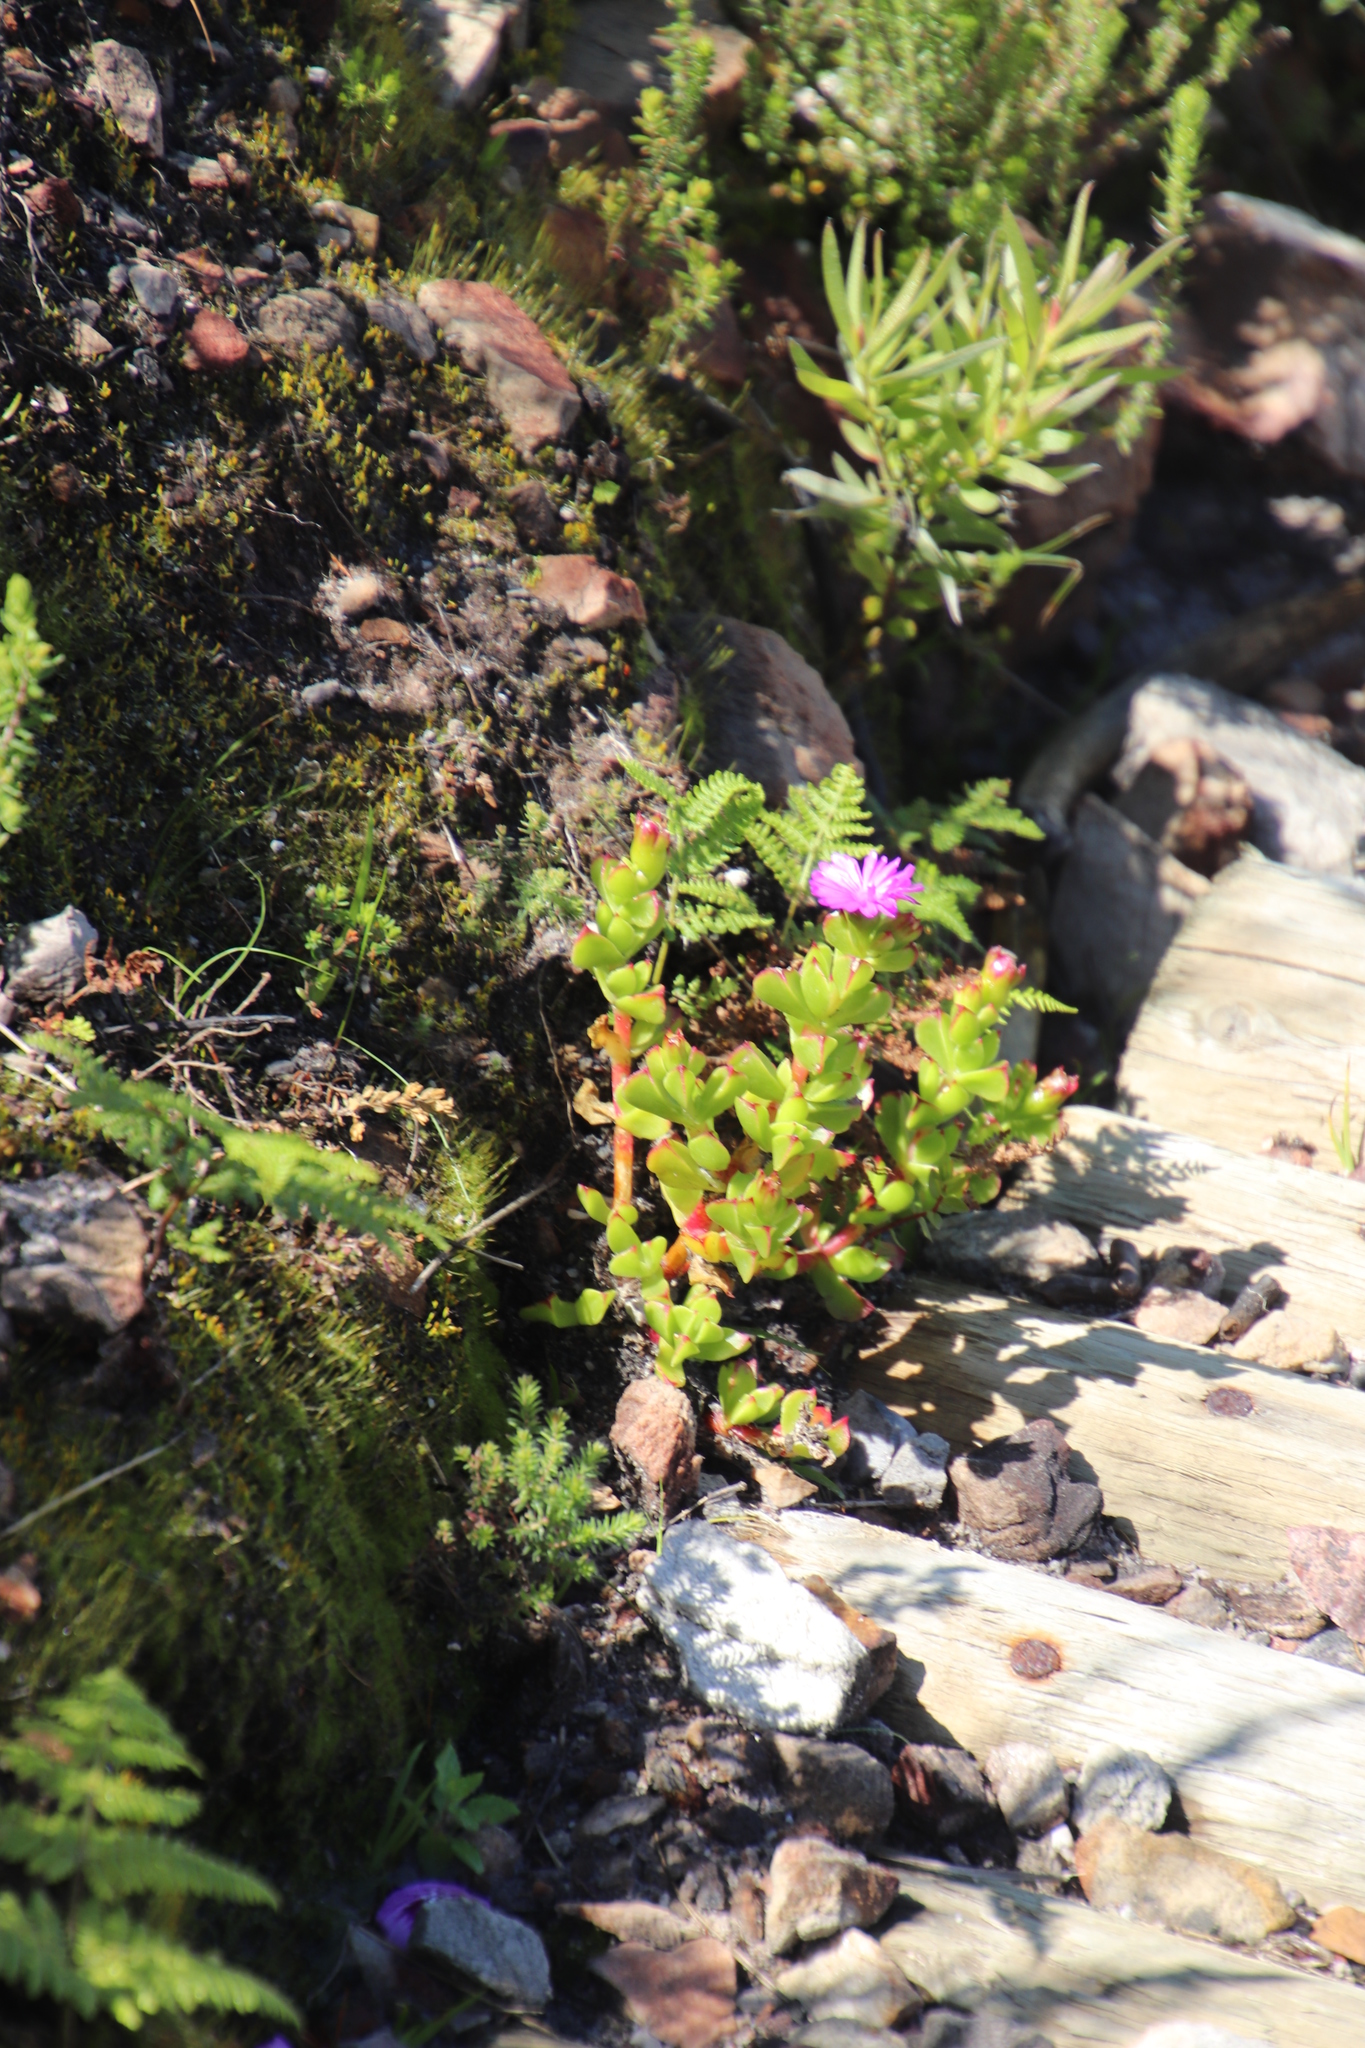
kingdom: Plantae
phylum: Tracheophyta
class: Magnoliopsida
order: Caryophyllales
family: Aizoaceae
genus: Erepsia
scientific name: Erepsia inclaudens
